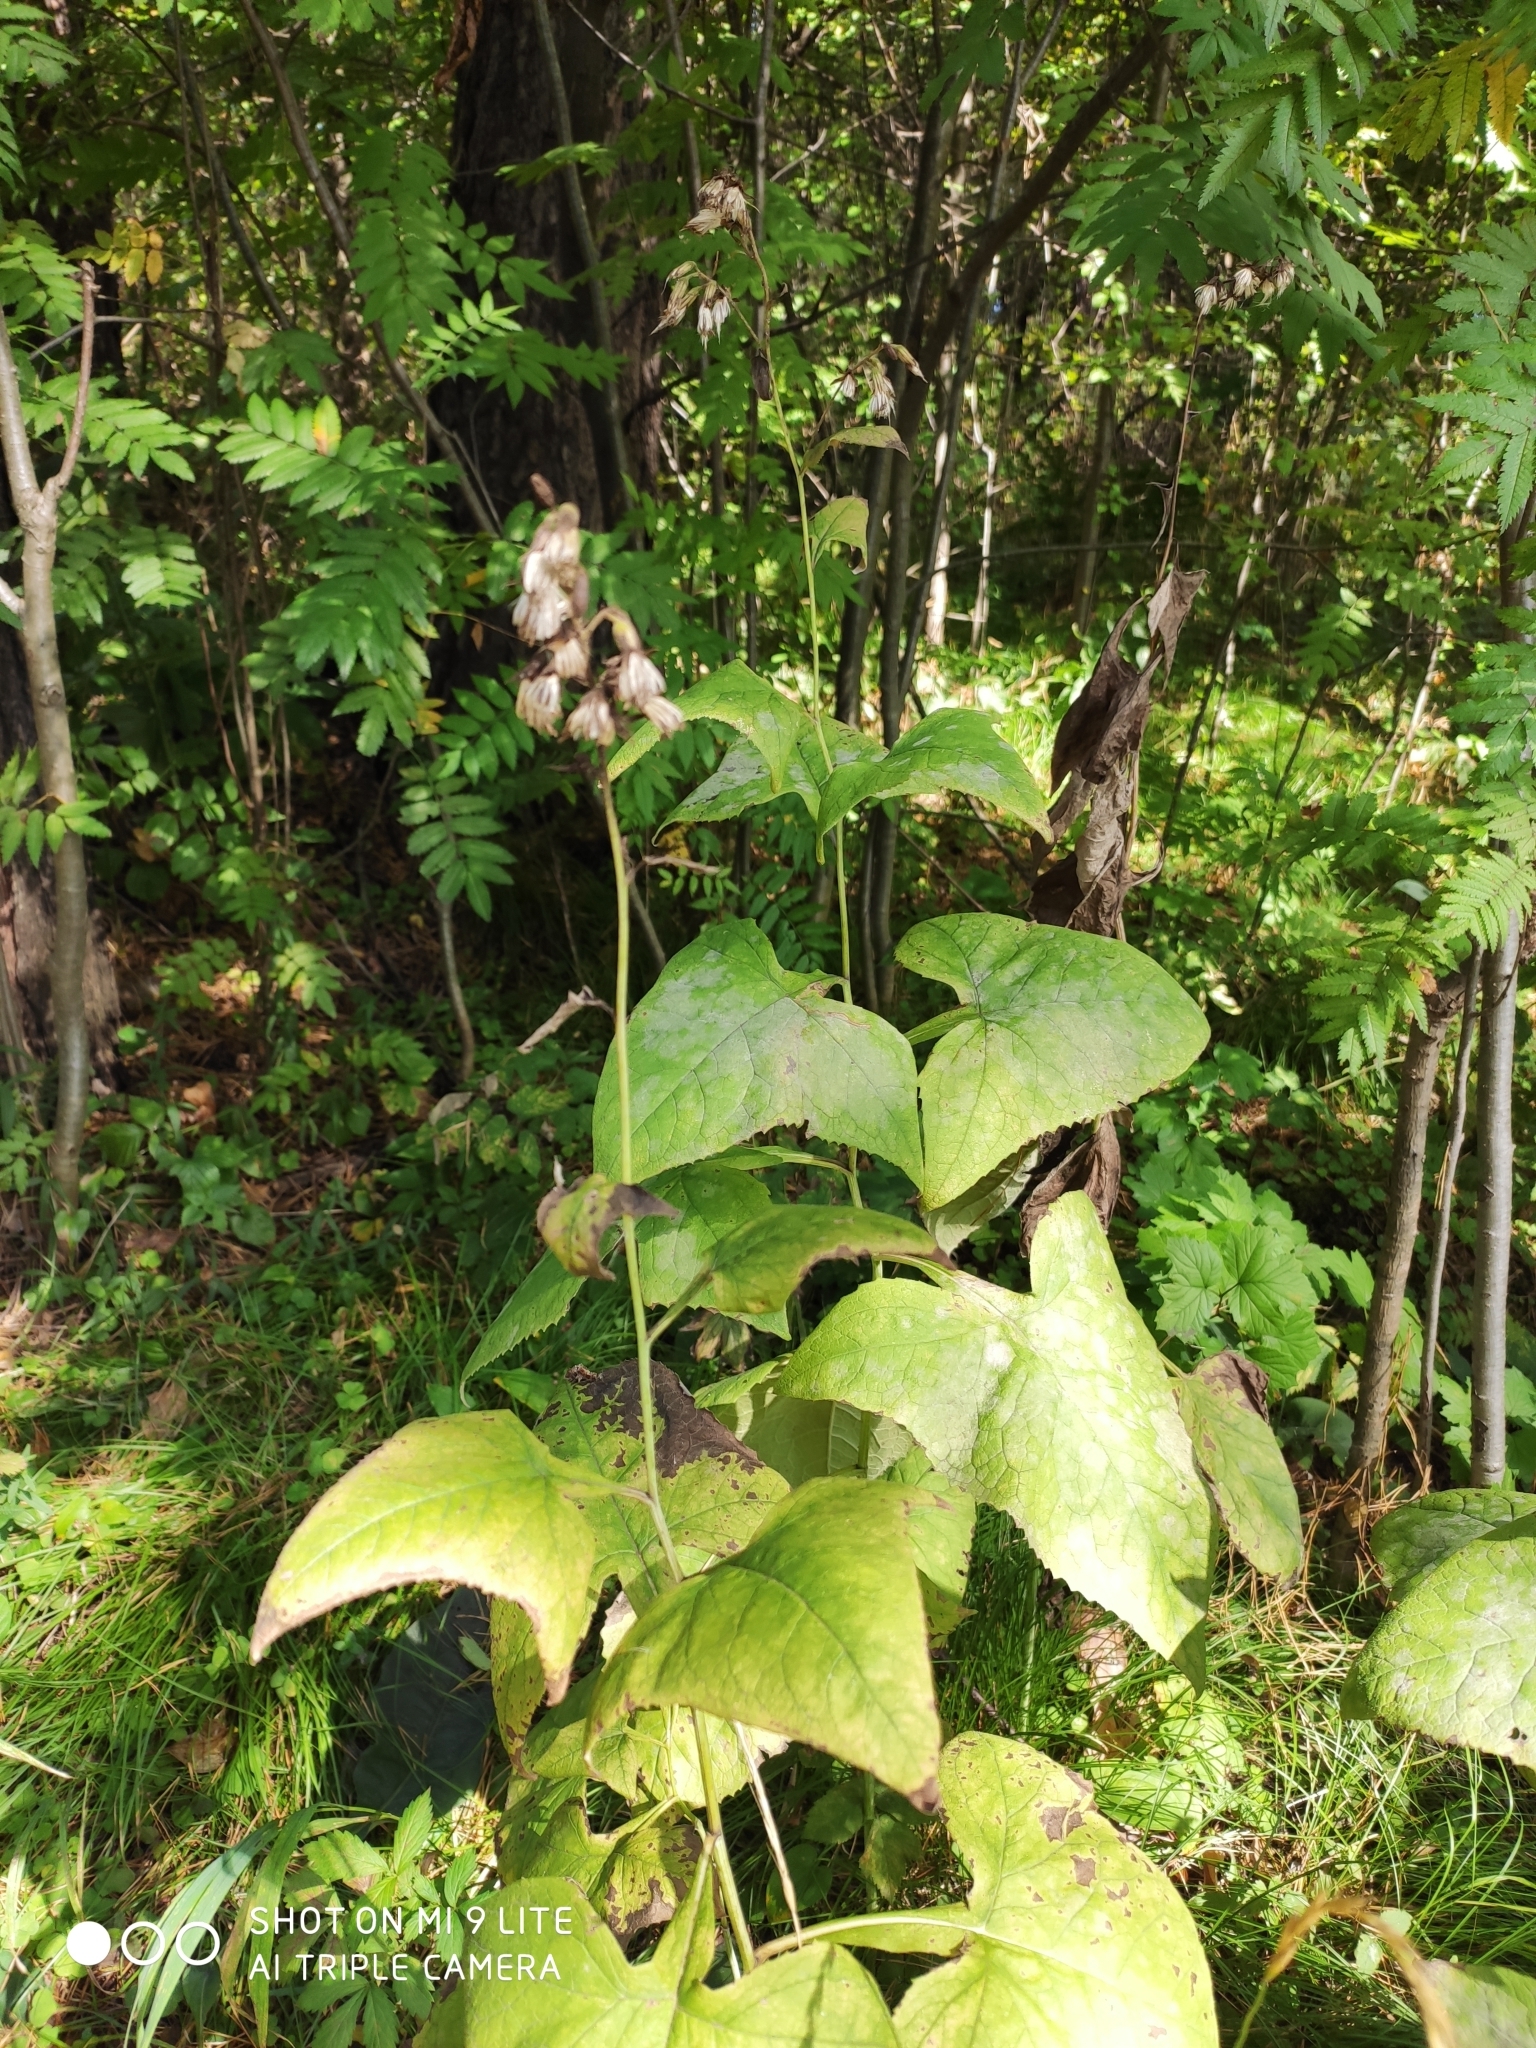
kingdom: Plantae
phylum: Tracheophyta
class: Magnoliopsida
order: Asterales
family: Asteraceae
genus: Parasenecio
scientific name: Parasenecio hastatus
